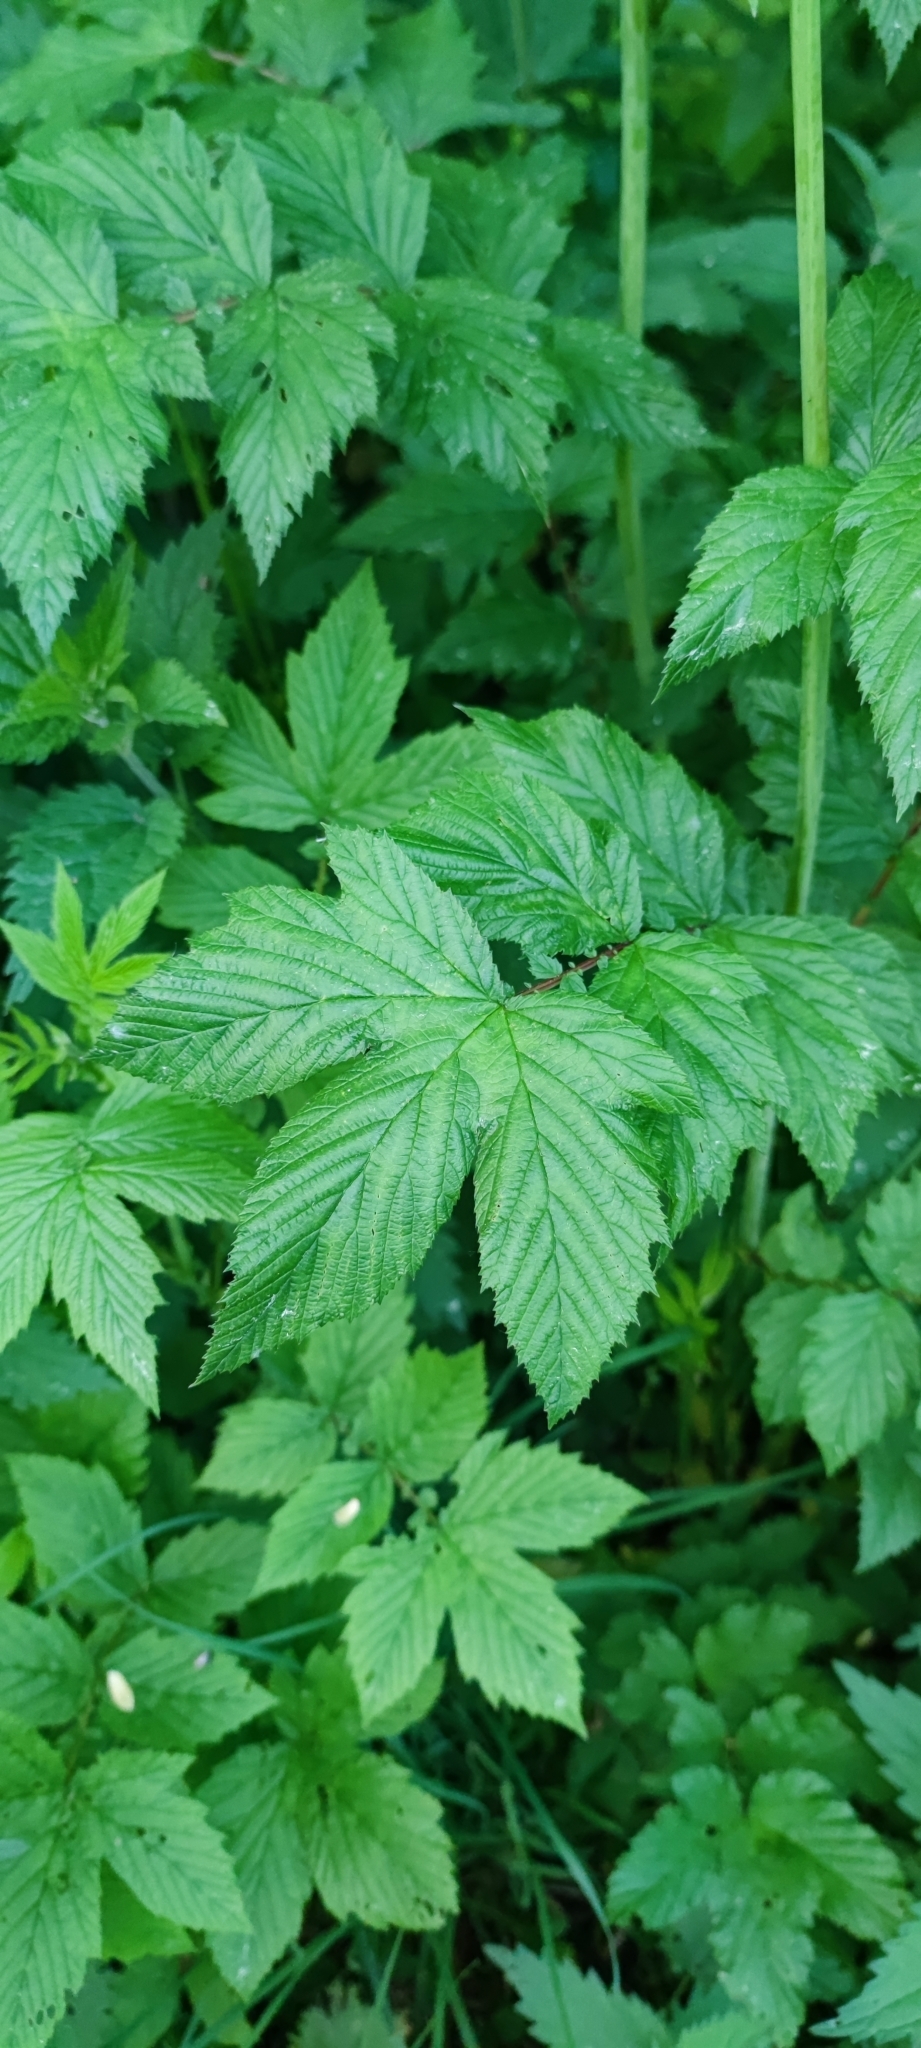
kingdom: Plantae
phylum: Tracheophyta
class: Magnoliopsida
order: Rosales
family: Rosaceae
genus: Filipendula
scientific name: Filipendula ulmaria
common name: Meadowsweet
